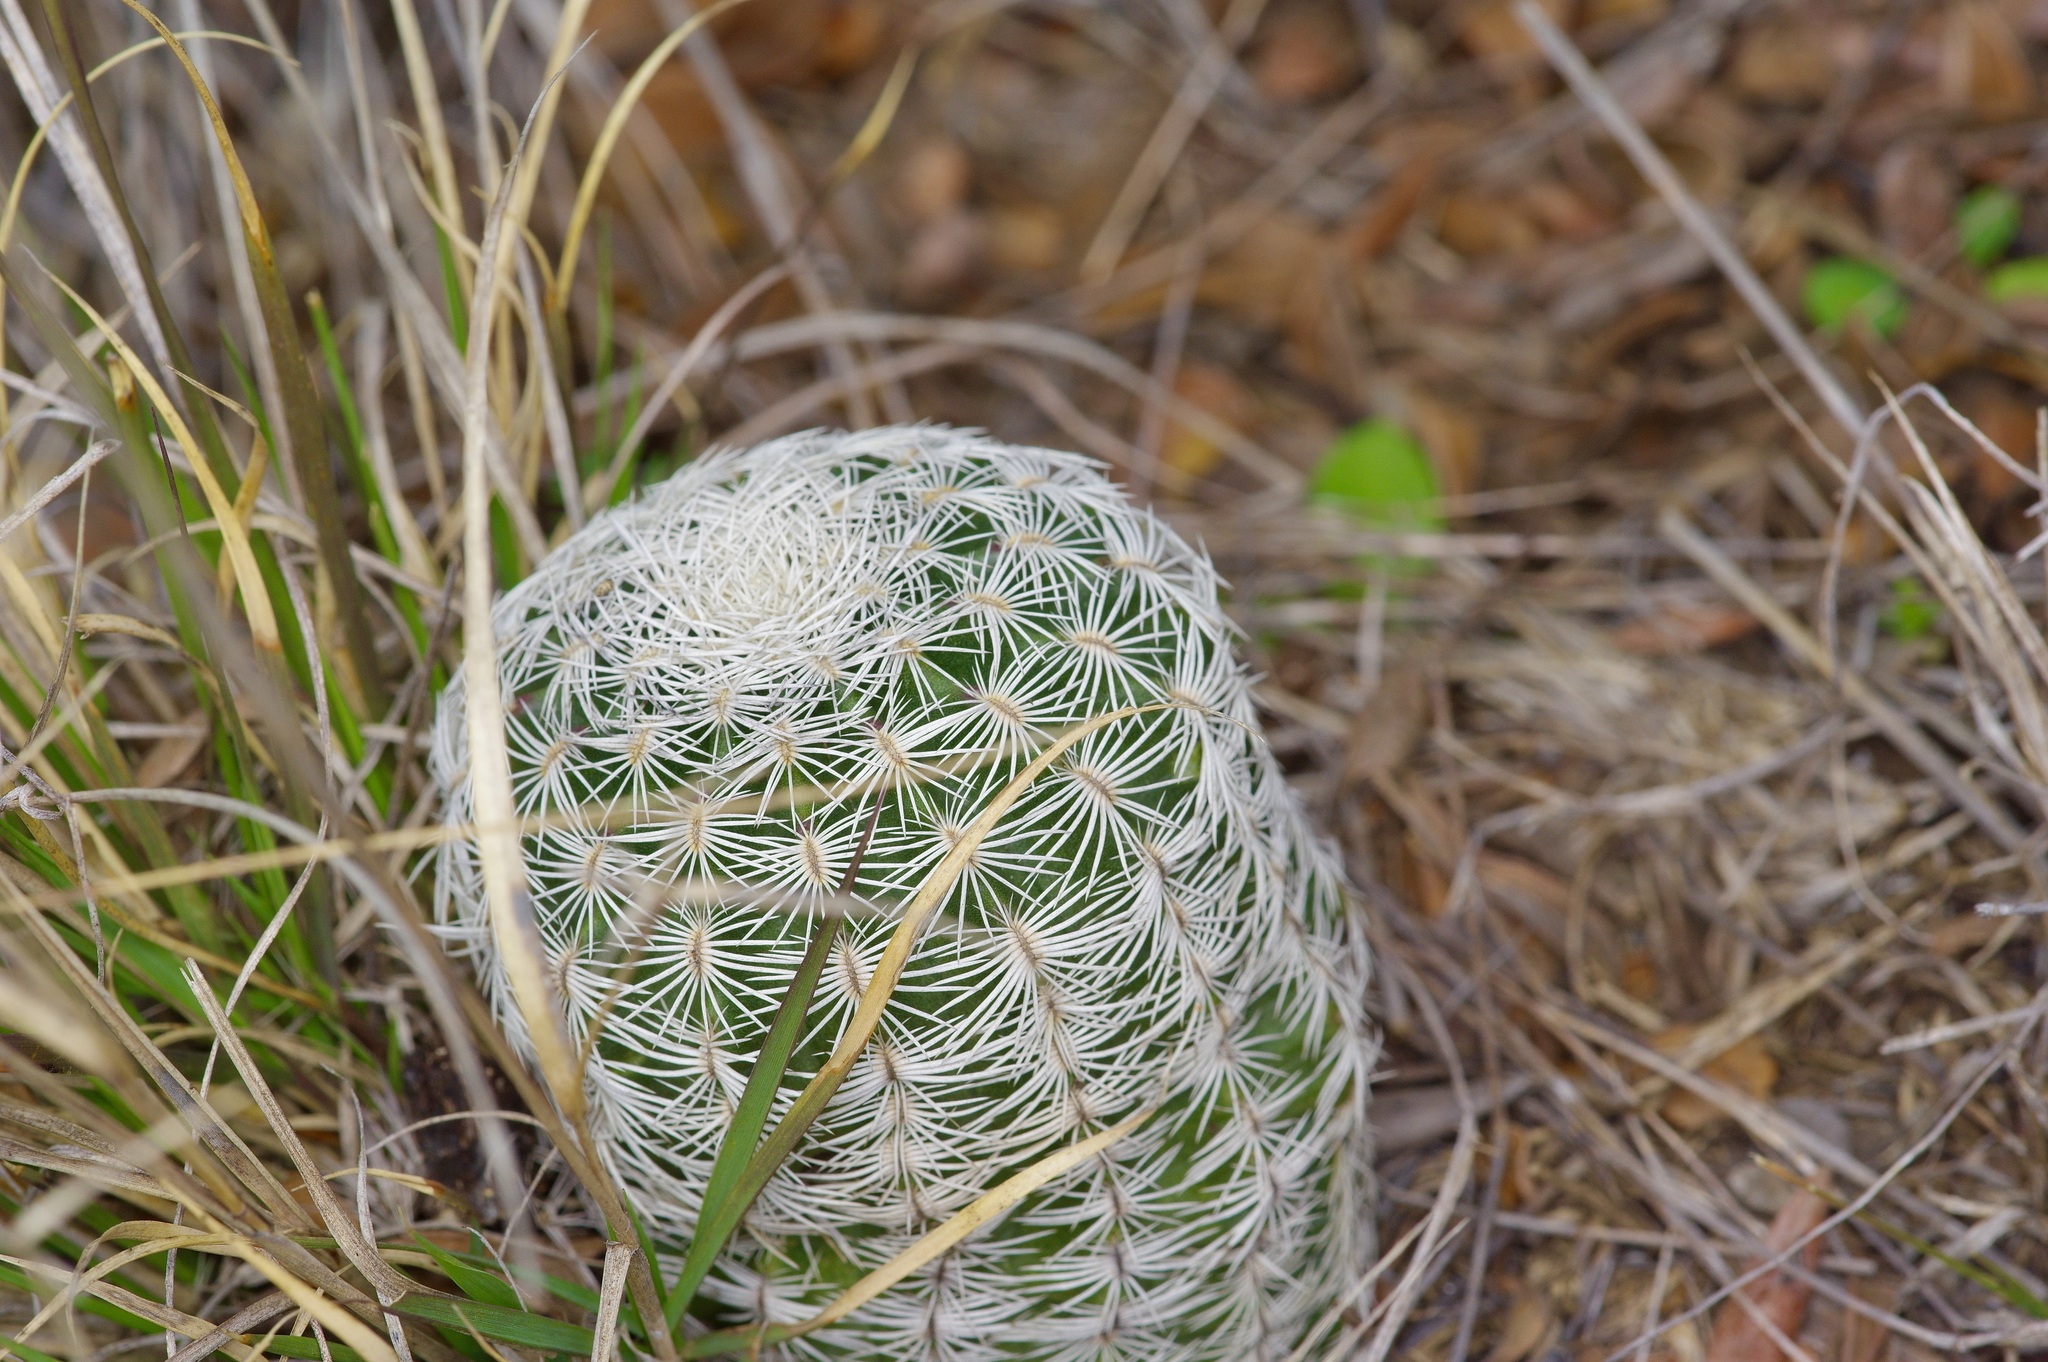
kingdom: Plantae
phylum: Tracheophyta
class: Magnoliopsida
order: Caryophyllales
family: Cactaceae
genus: Echinocereus
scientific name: Echinocereus reichenbachii
